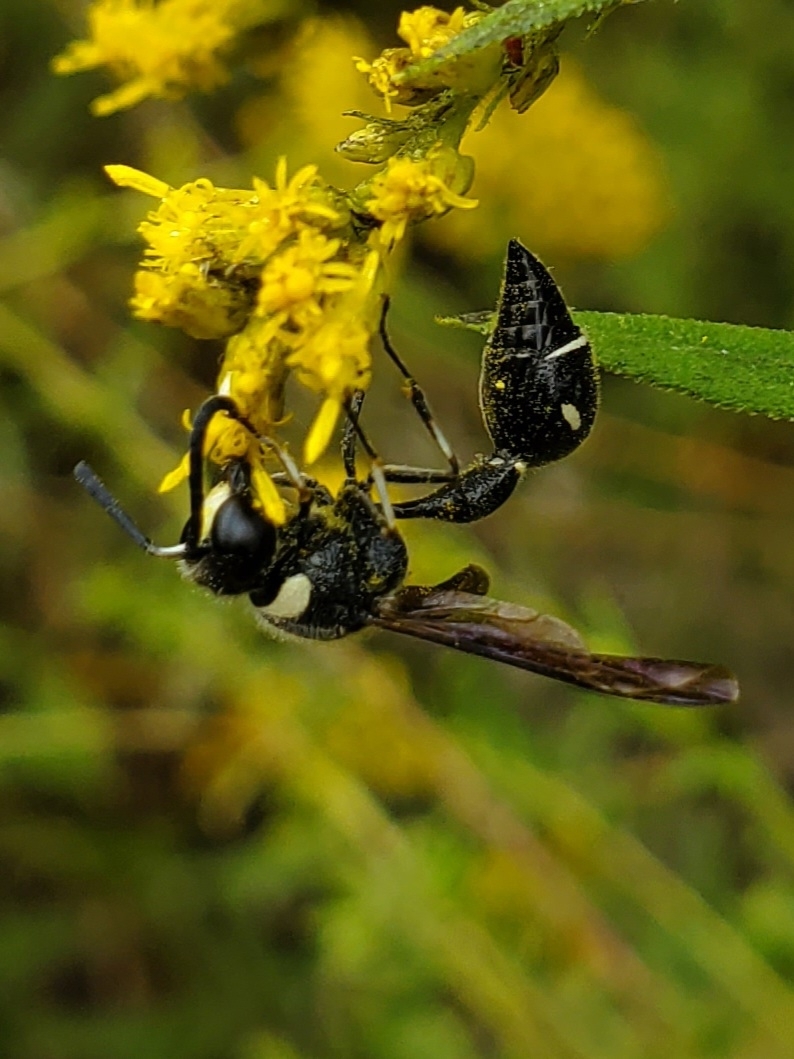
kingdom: Animalia
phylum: Arthropoda
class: Insecta
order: Hymenoptera
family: Vespidae
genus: Eumenes
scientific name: Eumenes fraternus
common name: Fraternal potter wasp
